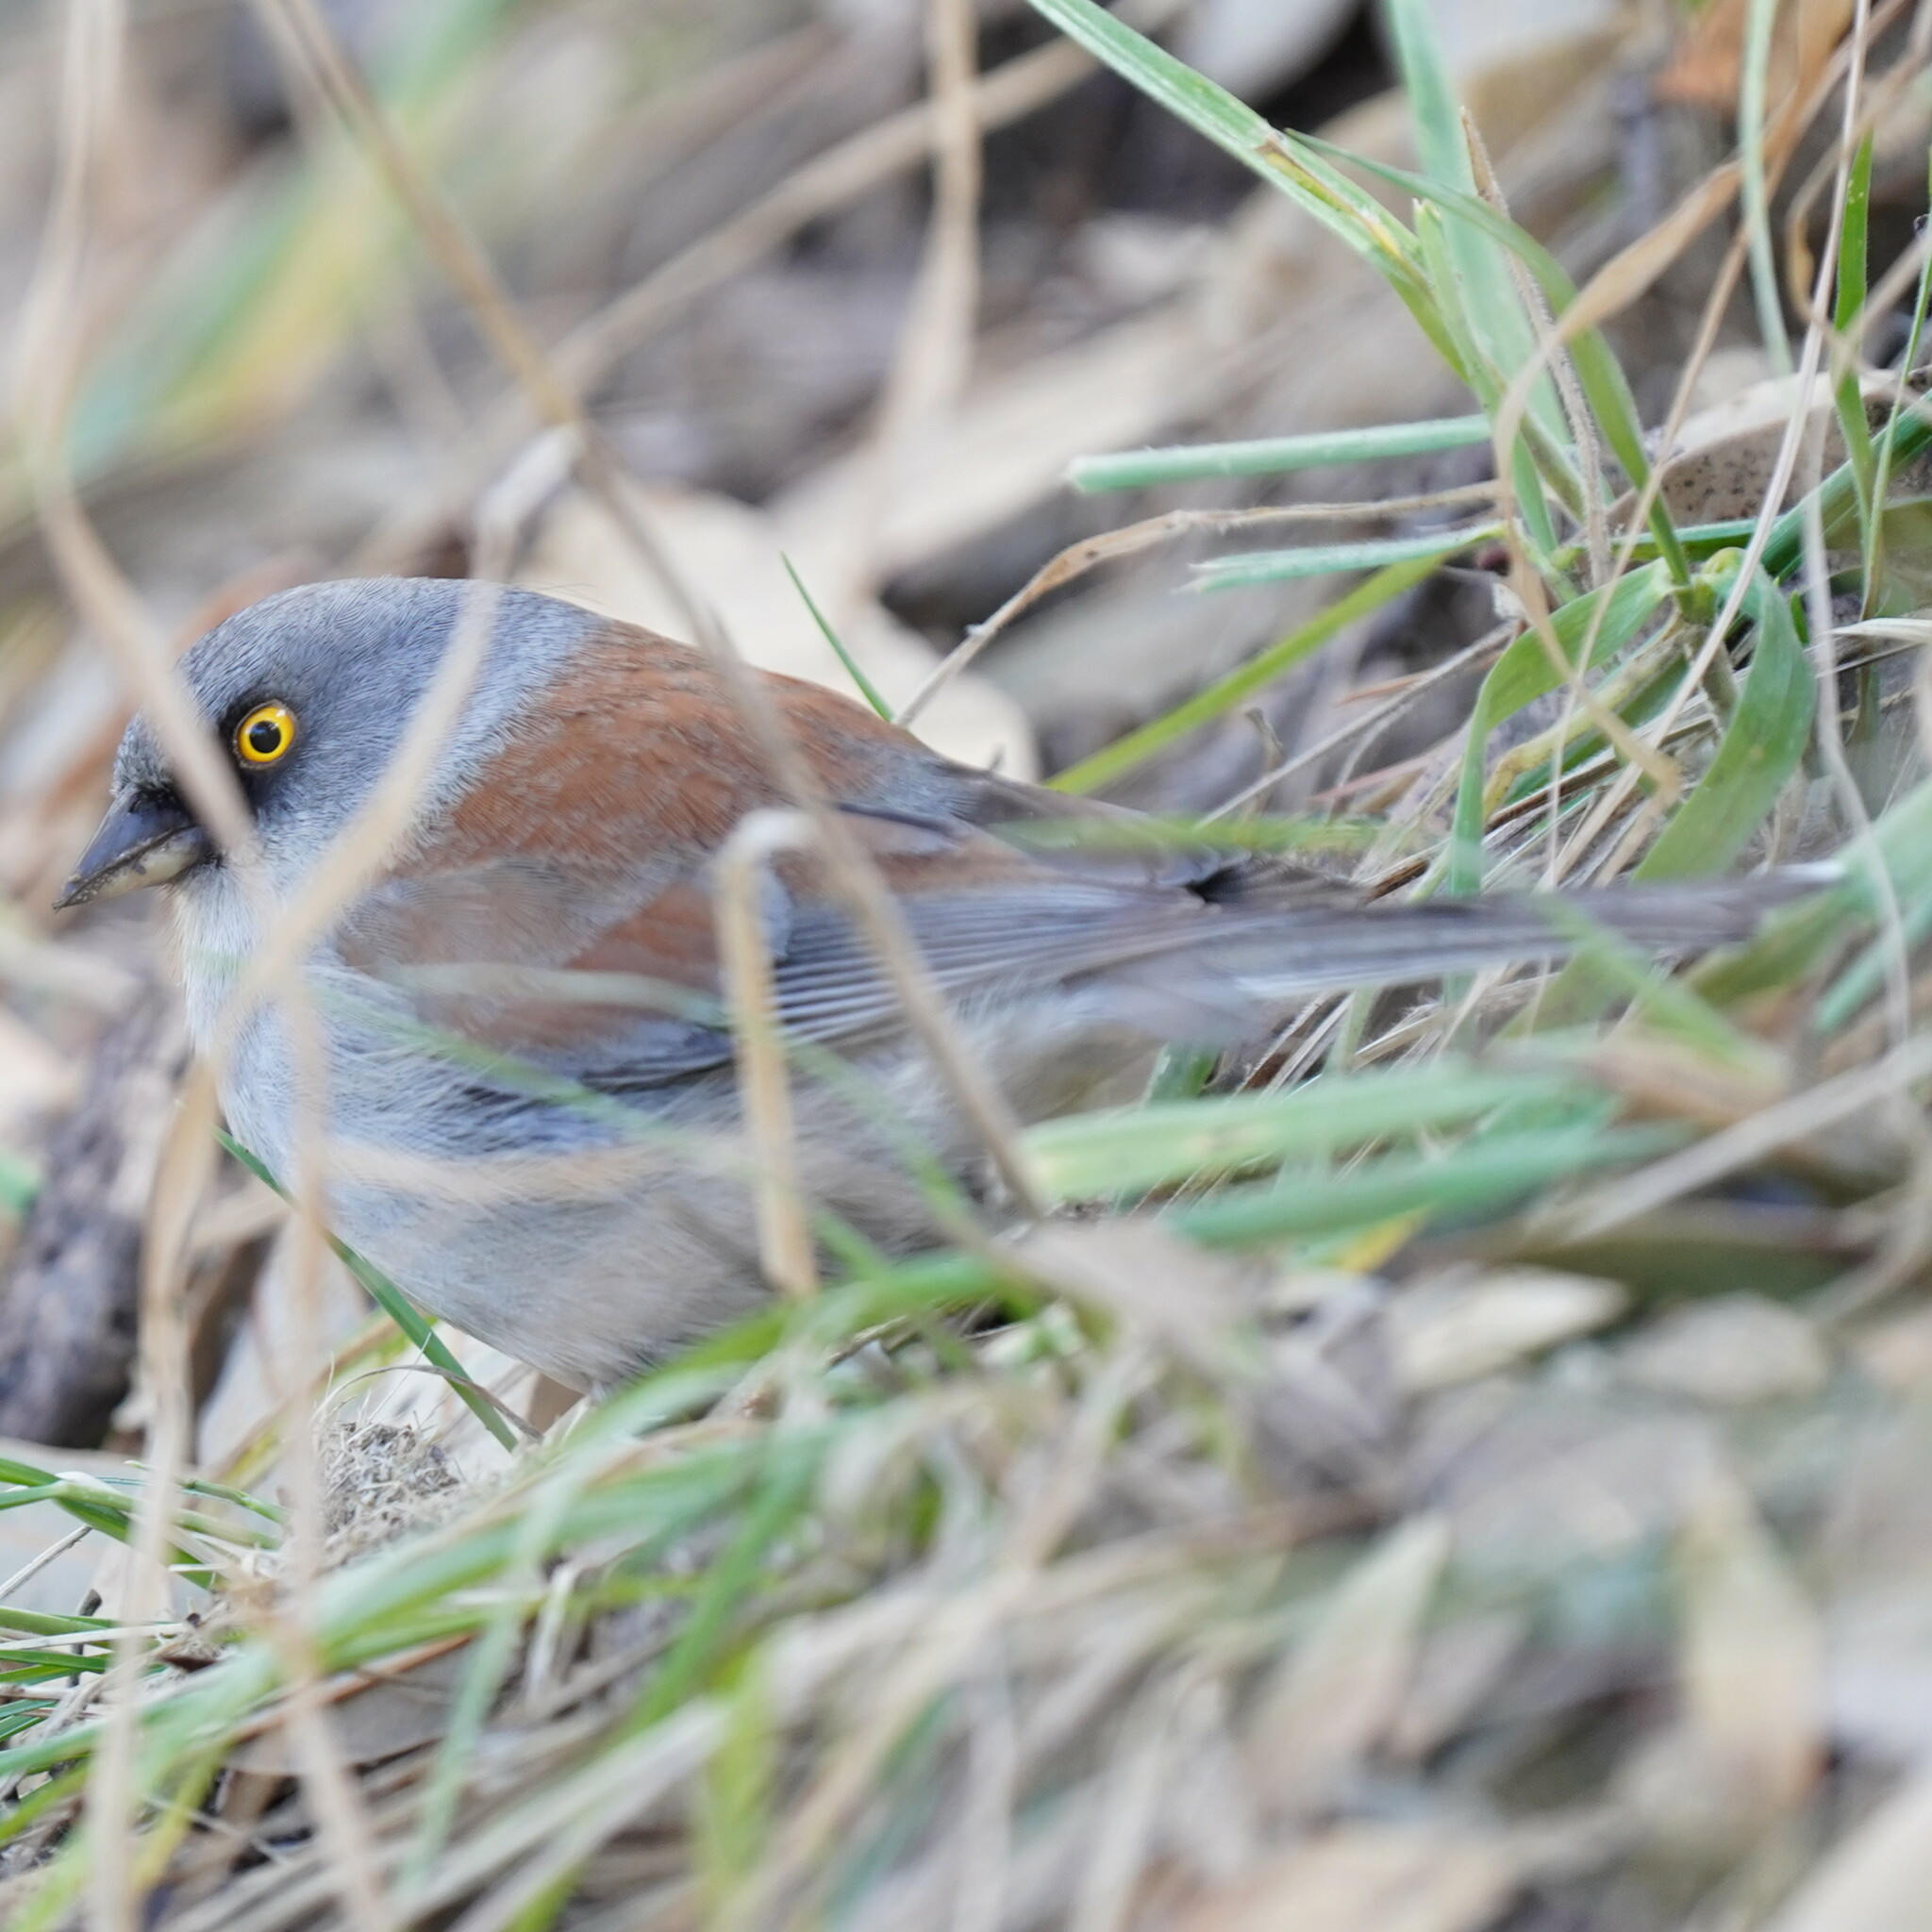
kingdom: Animalia
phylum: Chordata
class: Aves
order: Passeriformes
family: Passerellidae
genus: Junco
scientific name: Junco phaeonotus
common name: Yellow-eyed junco
